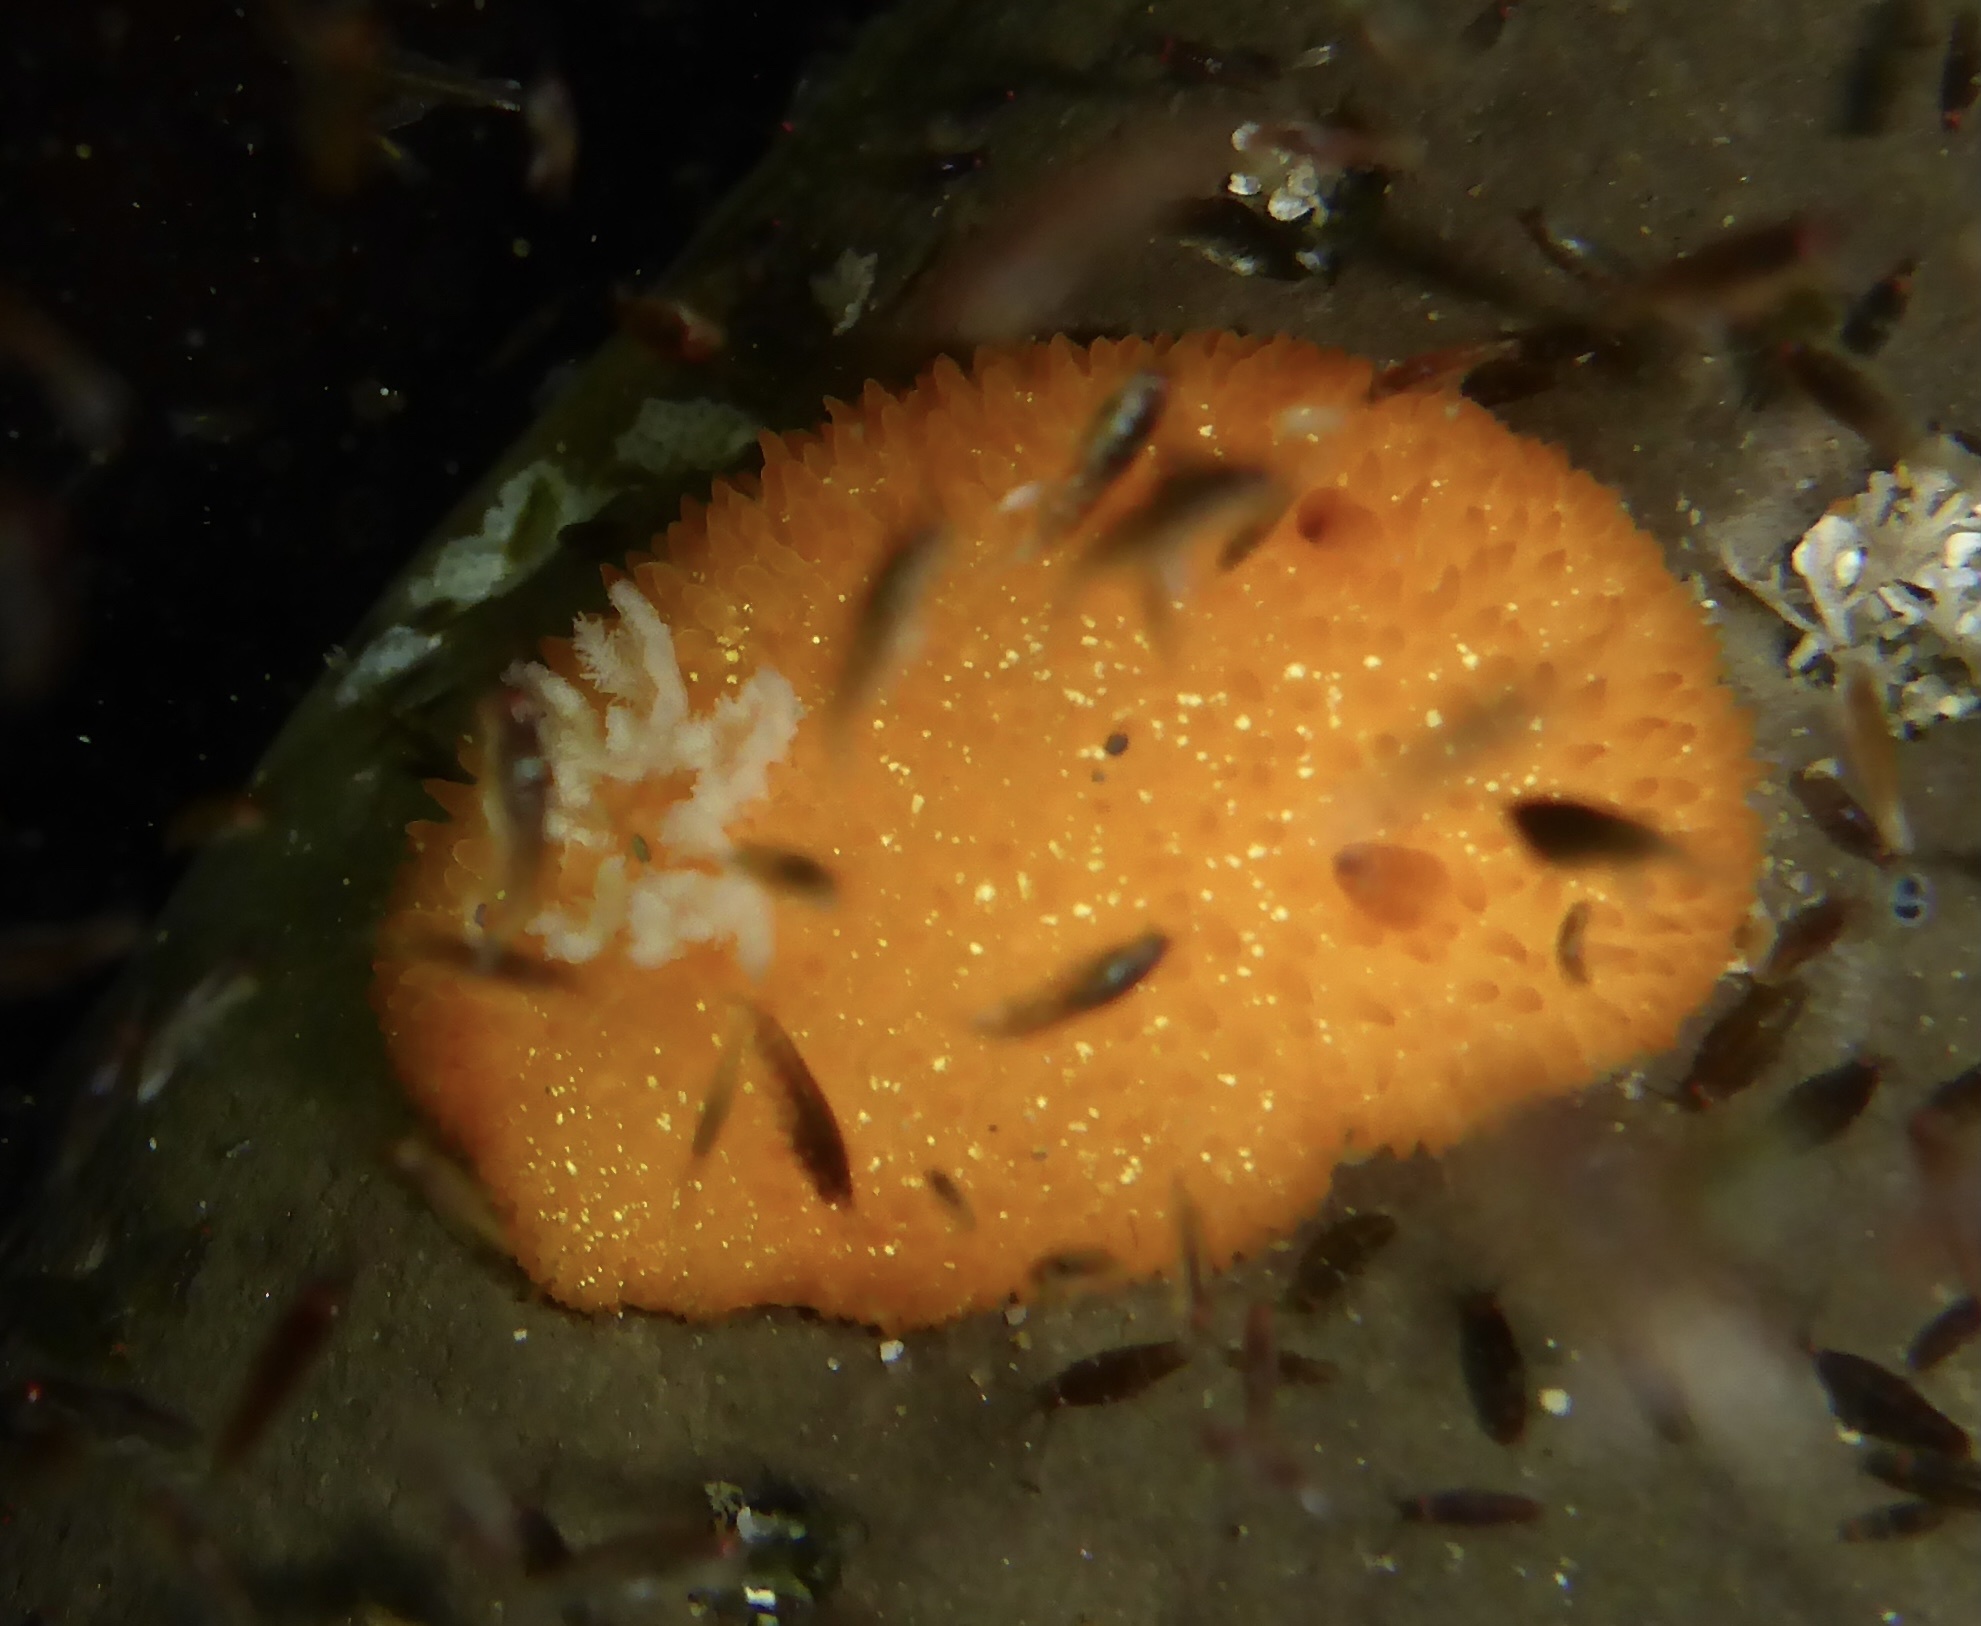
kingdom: Animalia
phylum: Mollusca
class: Gastropoda
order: Nudibranchia
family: Onchidorididae
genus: Acanthodoris
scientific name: Acanthodoris lutea
